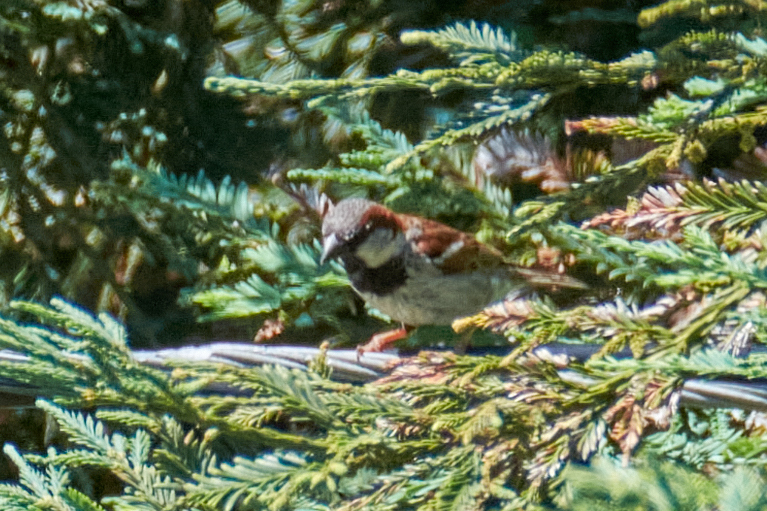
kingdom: Animalia
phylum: Chordata
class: Aves
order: Passeriformes
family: Passeridae
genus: Passer
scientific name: Passer domesticus
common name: House sparrow
